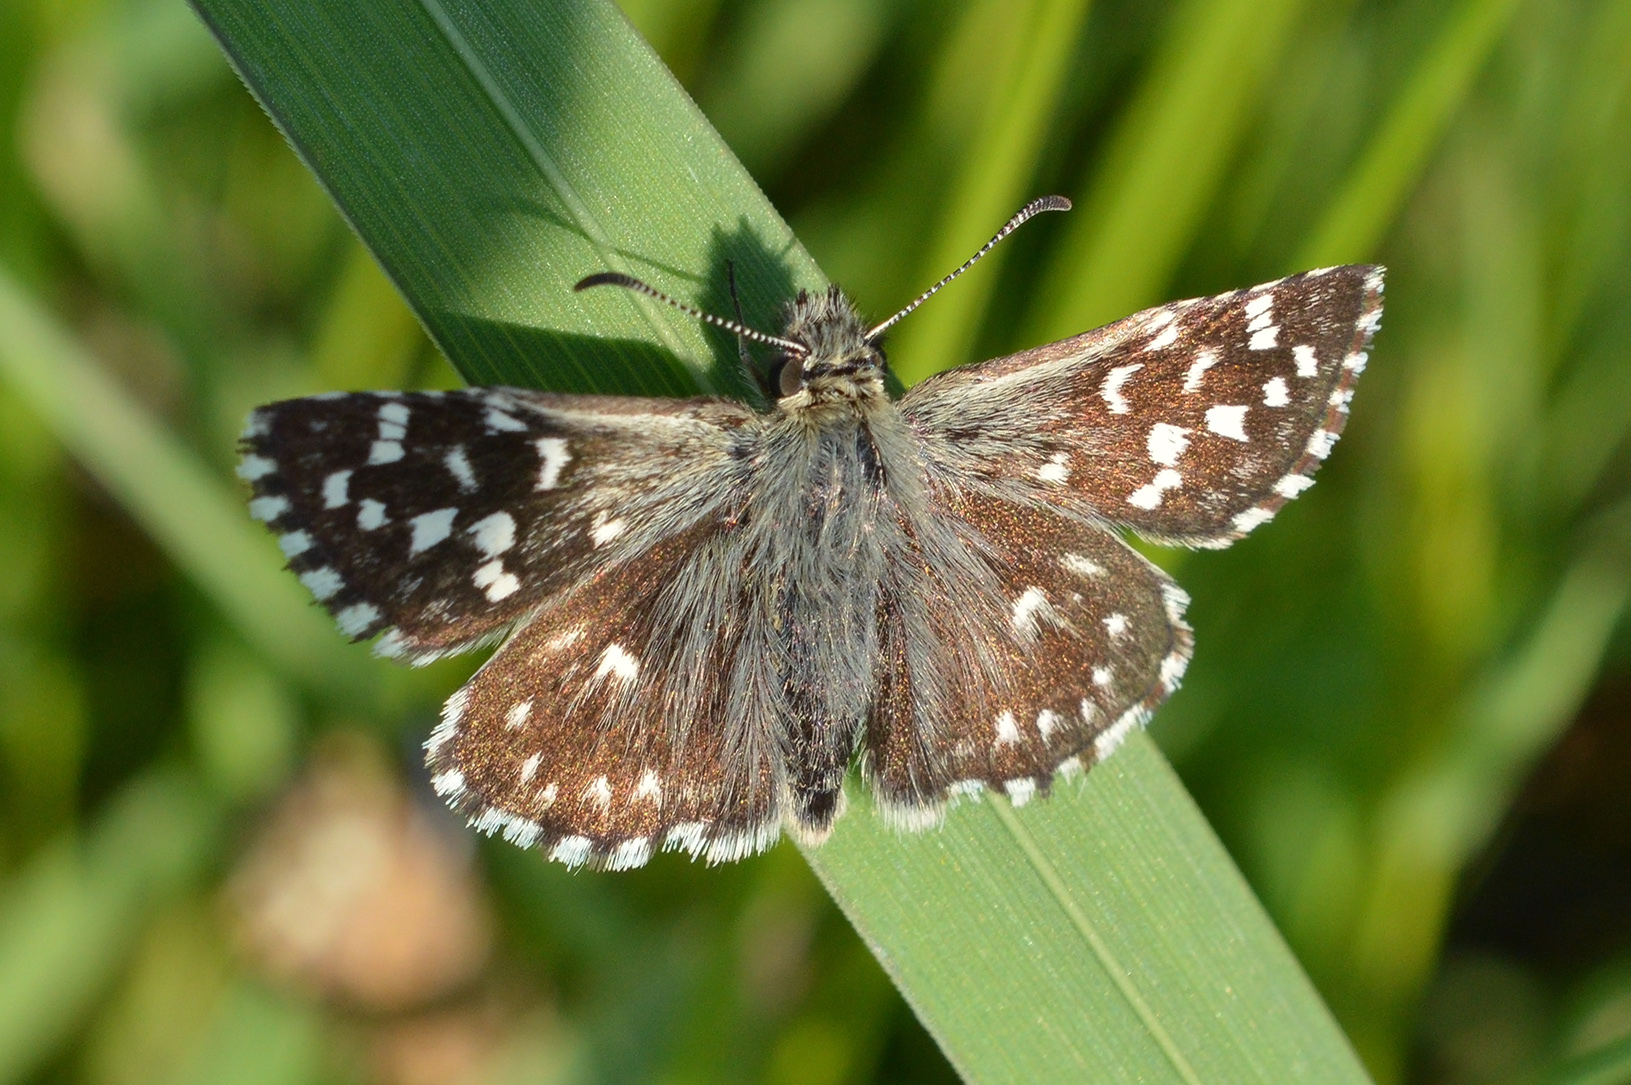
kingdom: Animalia
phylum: Arthropoda
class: Insecta
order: Lepidoptera
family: Hesperiidae
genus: Pyrgus
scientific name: Pyrgus malvae
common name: Grizzled skipper
